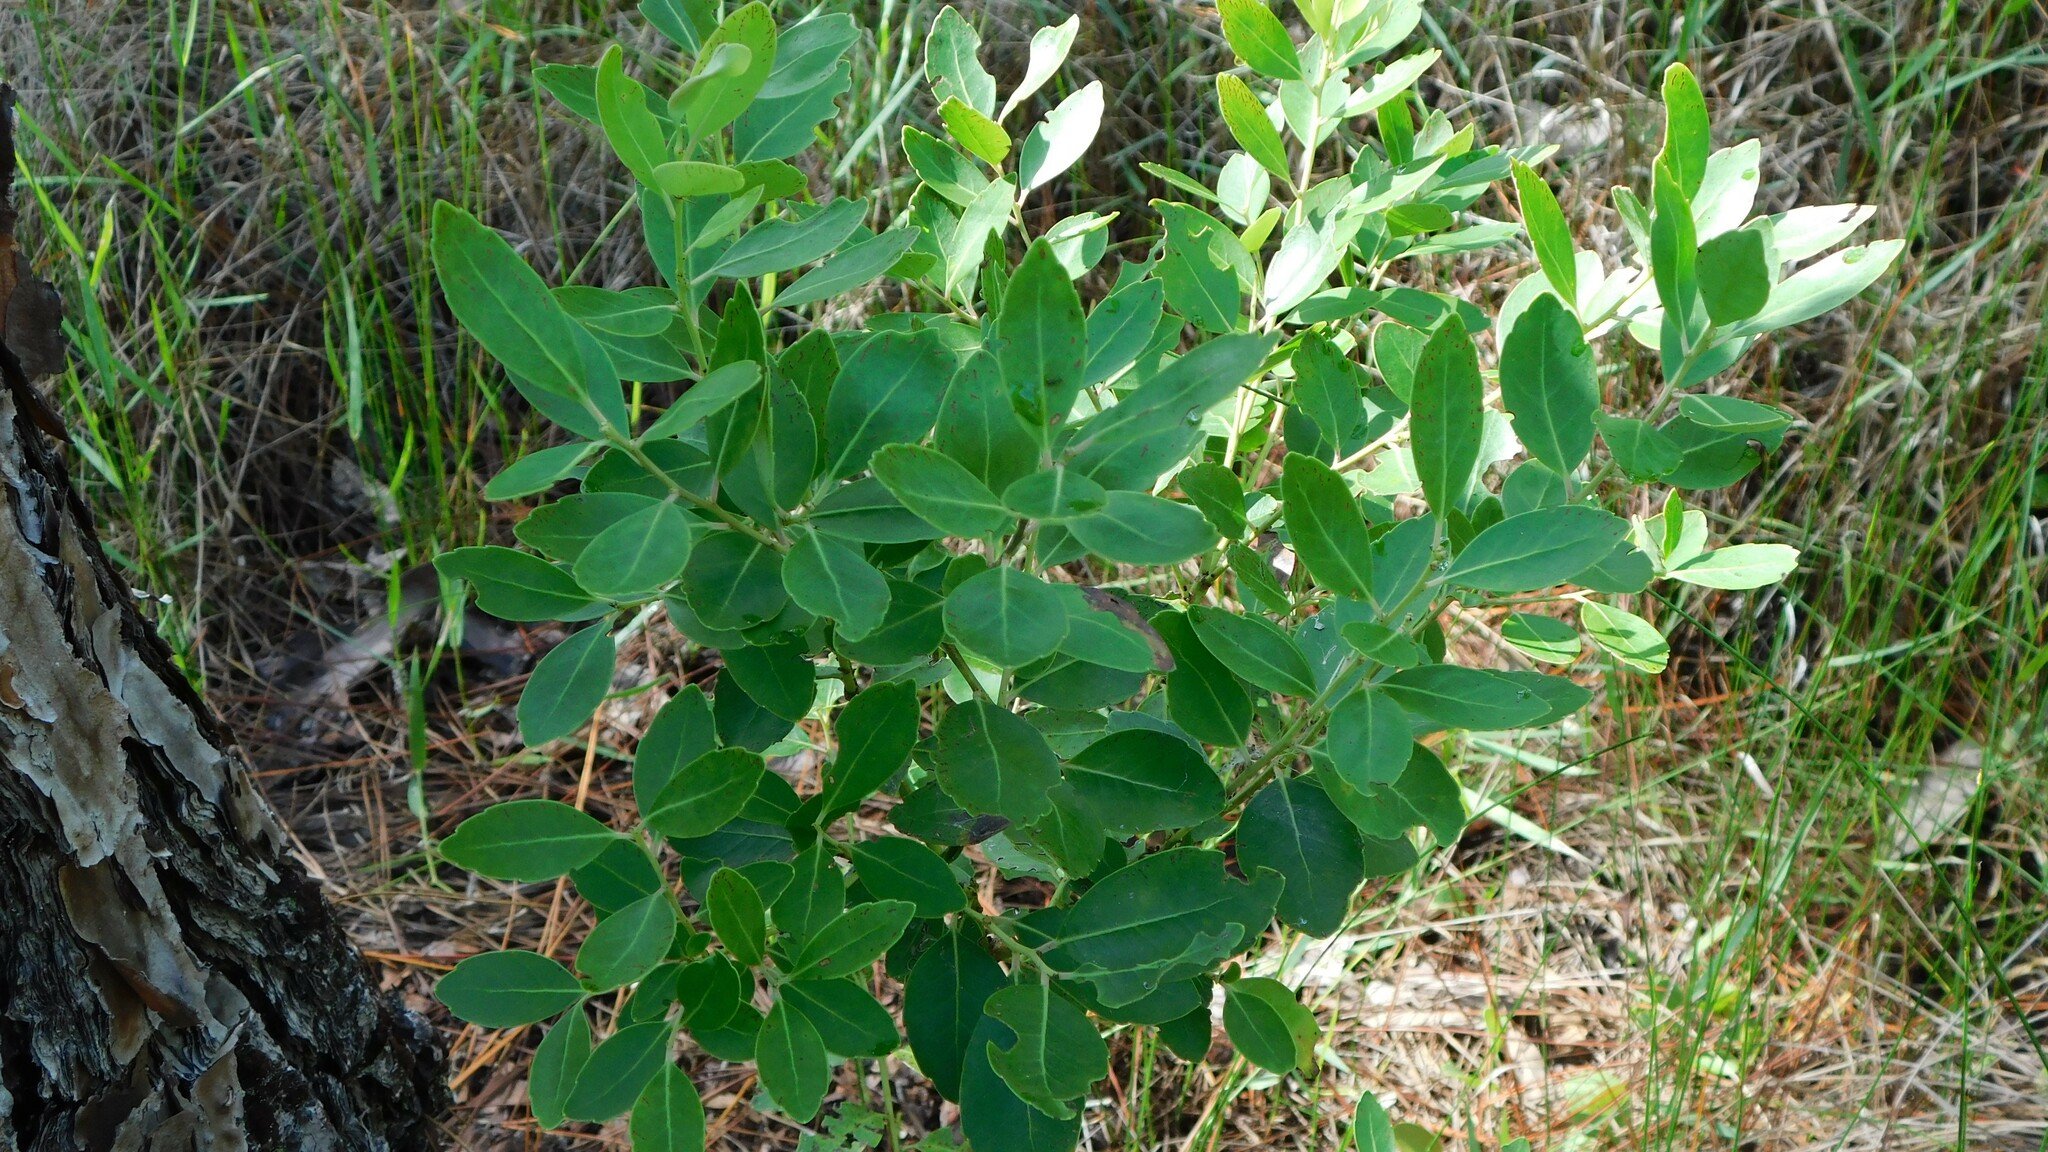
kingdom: Plantae
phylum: Tracheophyta
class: Magnoliopsida
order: Aquifoliales
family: Aquifoliaceae
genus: Ilex
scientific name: Ilex glabra
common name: Bitter gallberry
